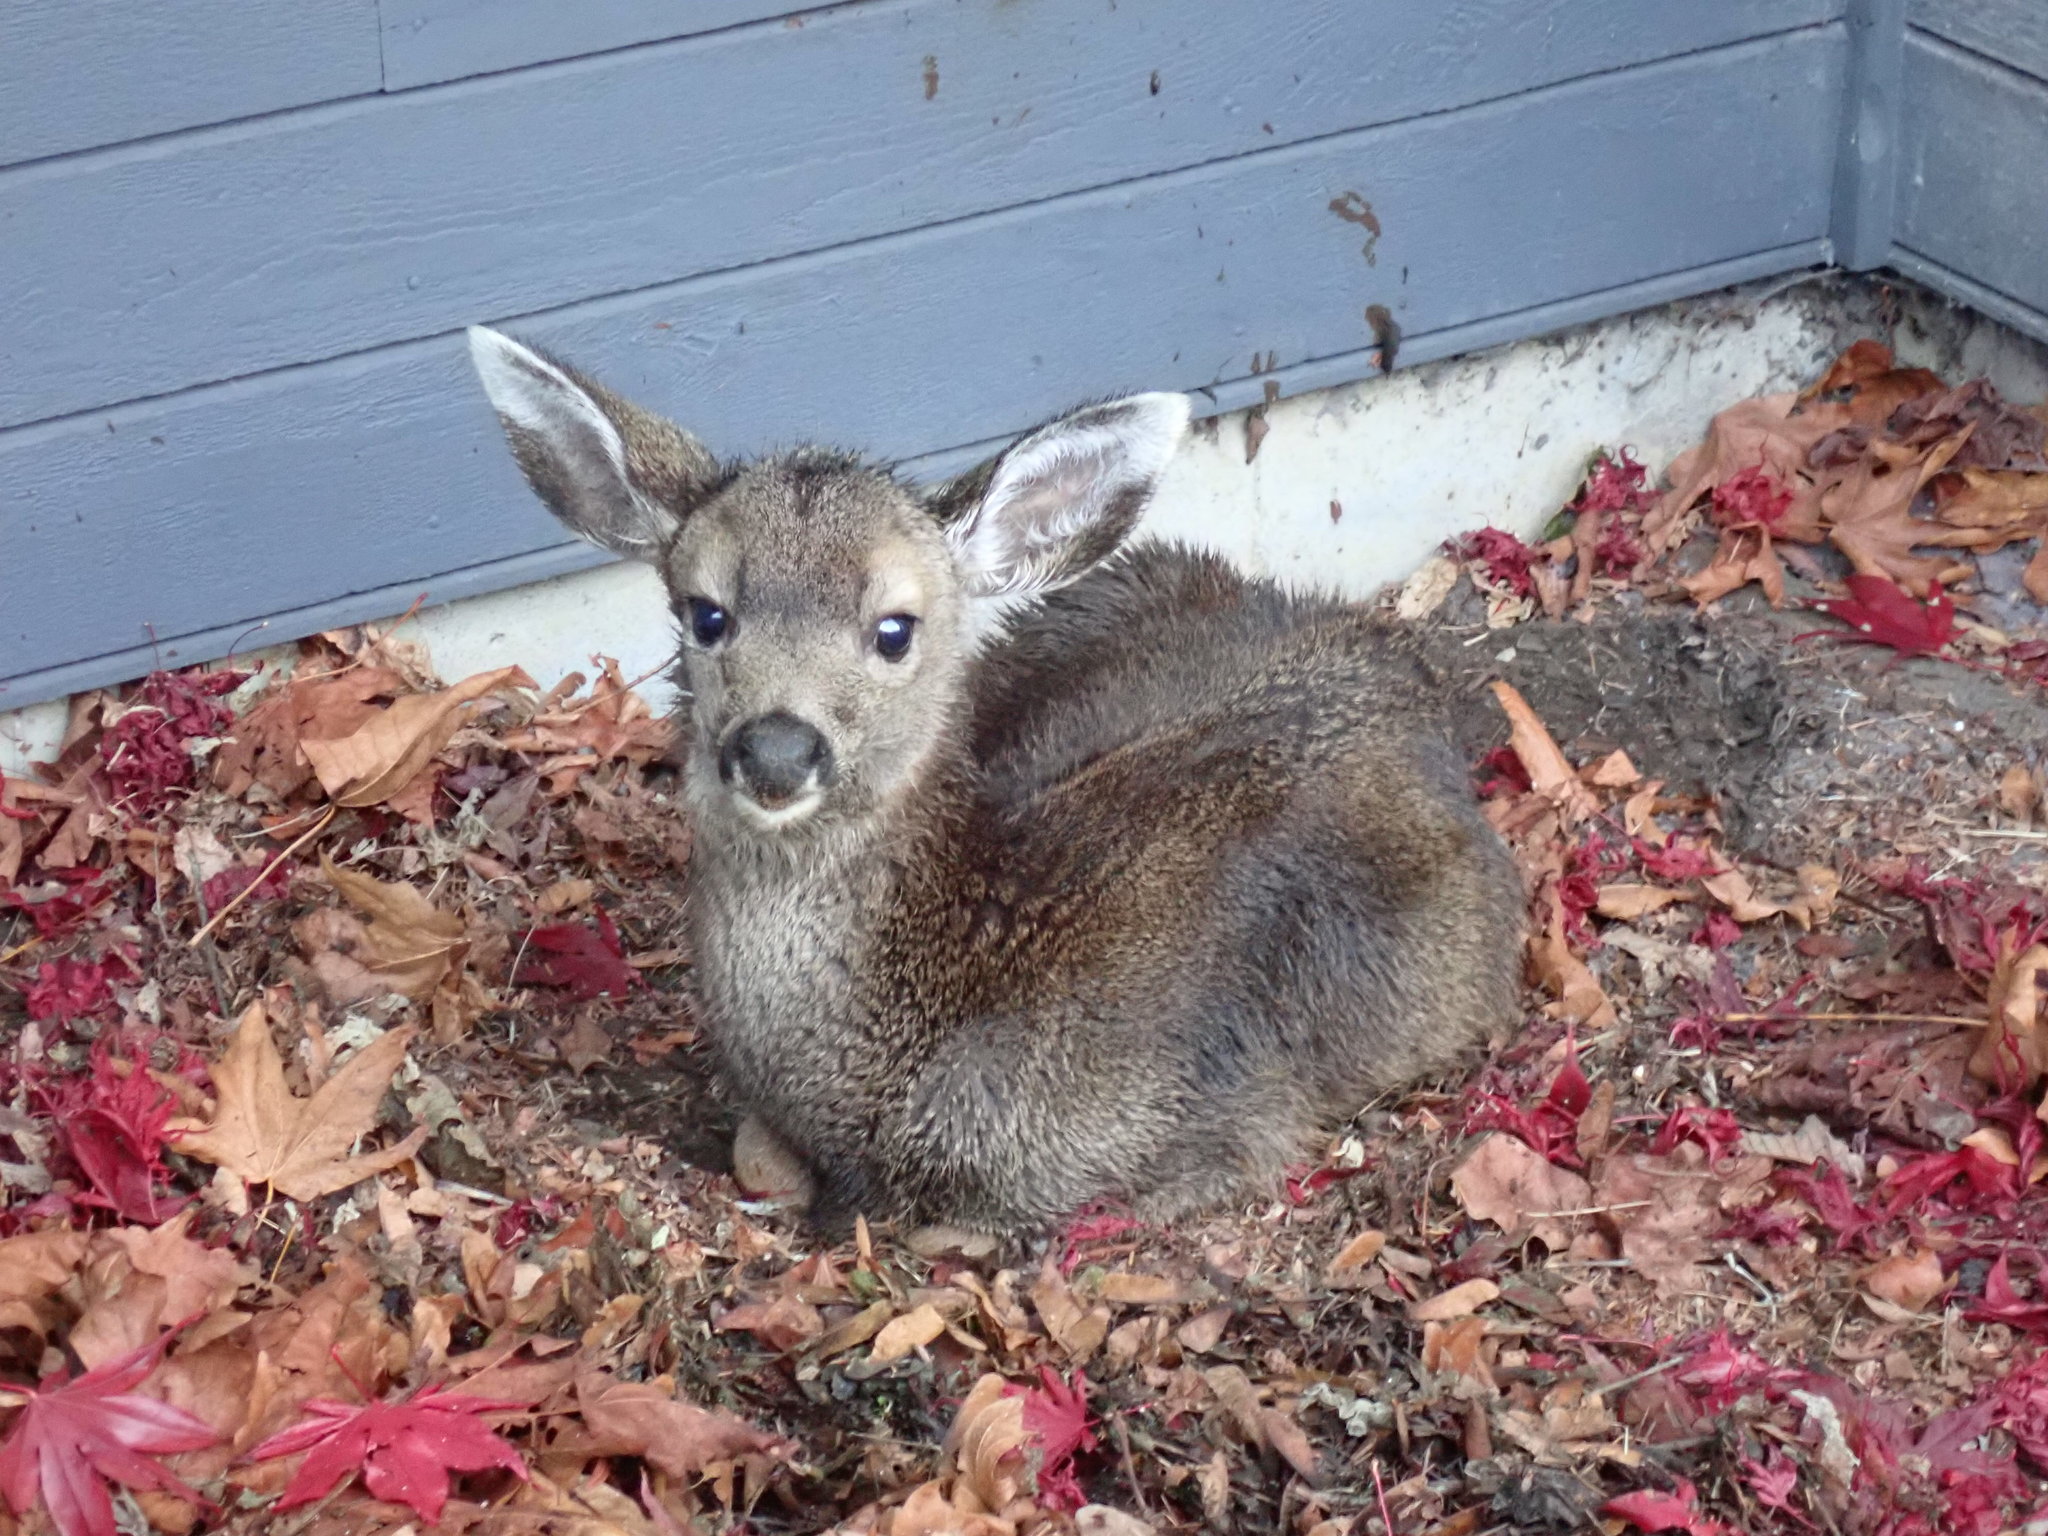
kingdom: Animalia
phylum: Chordata
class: Mammalia
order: Artiodactyla
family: Cervidae
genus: Odocoileus
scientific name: Odocoileus hemionus
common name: Mule deer
